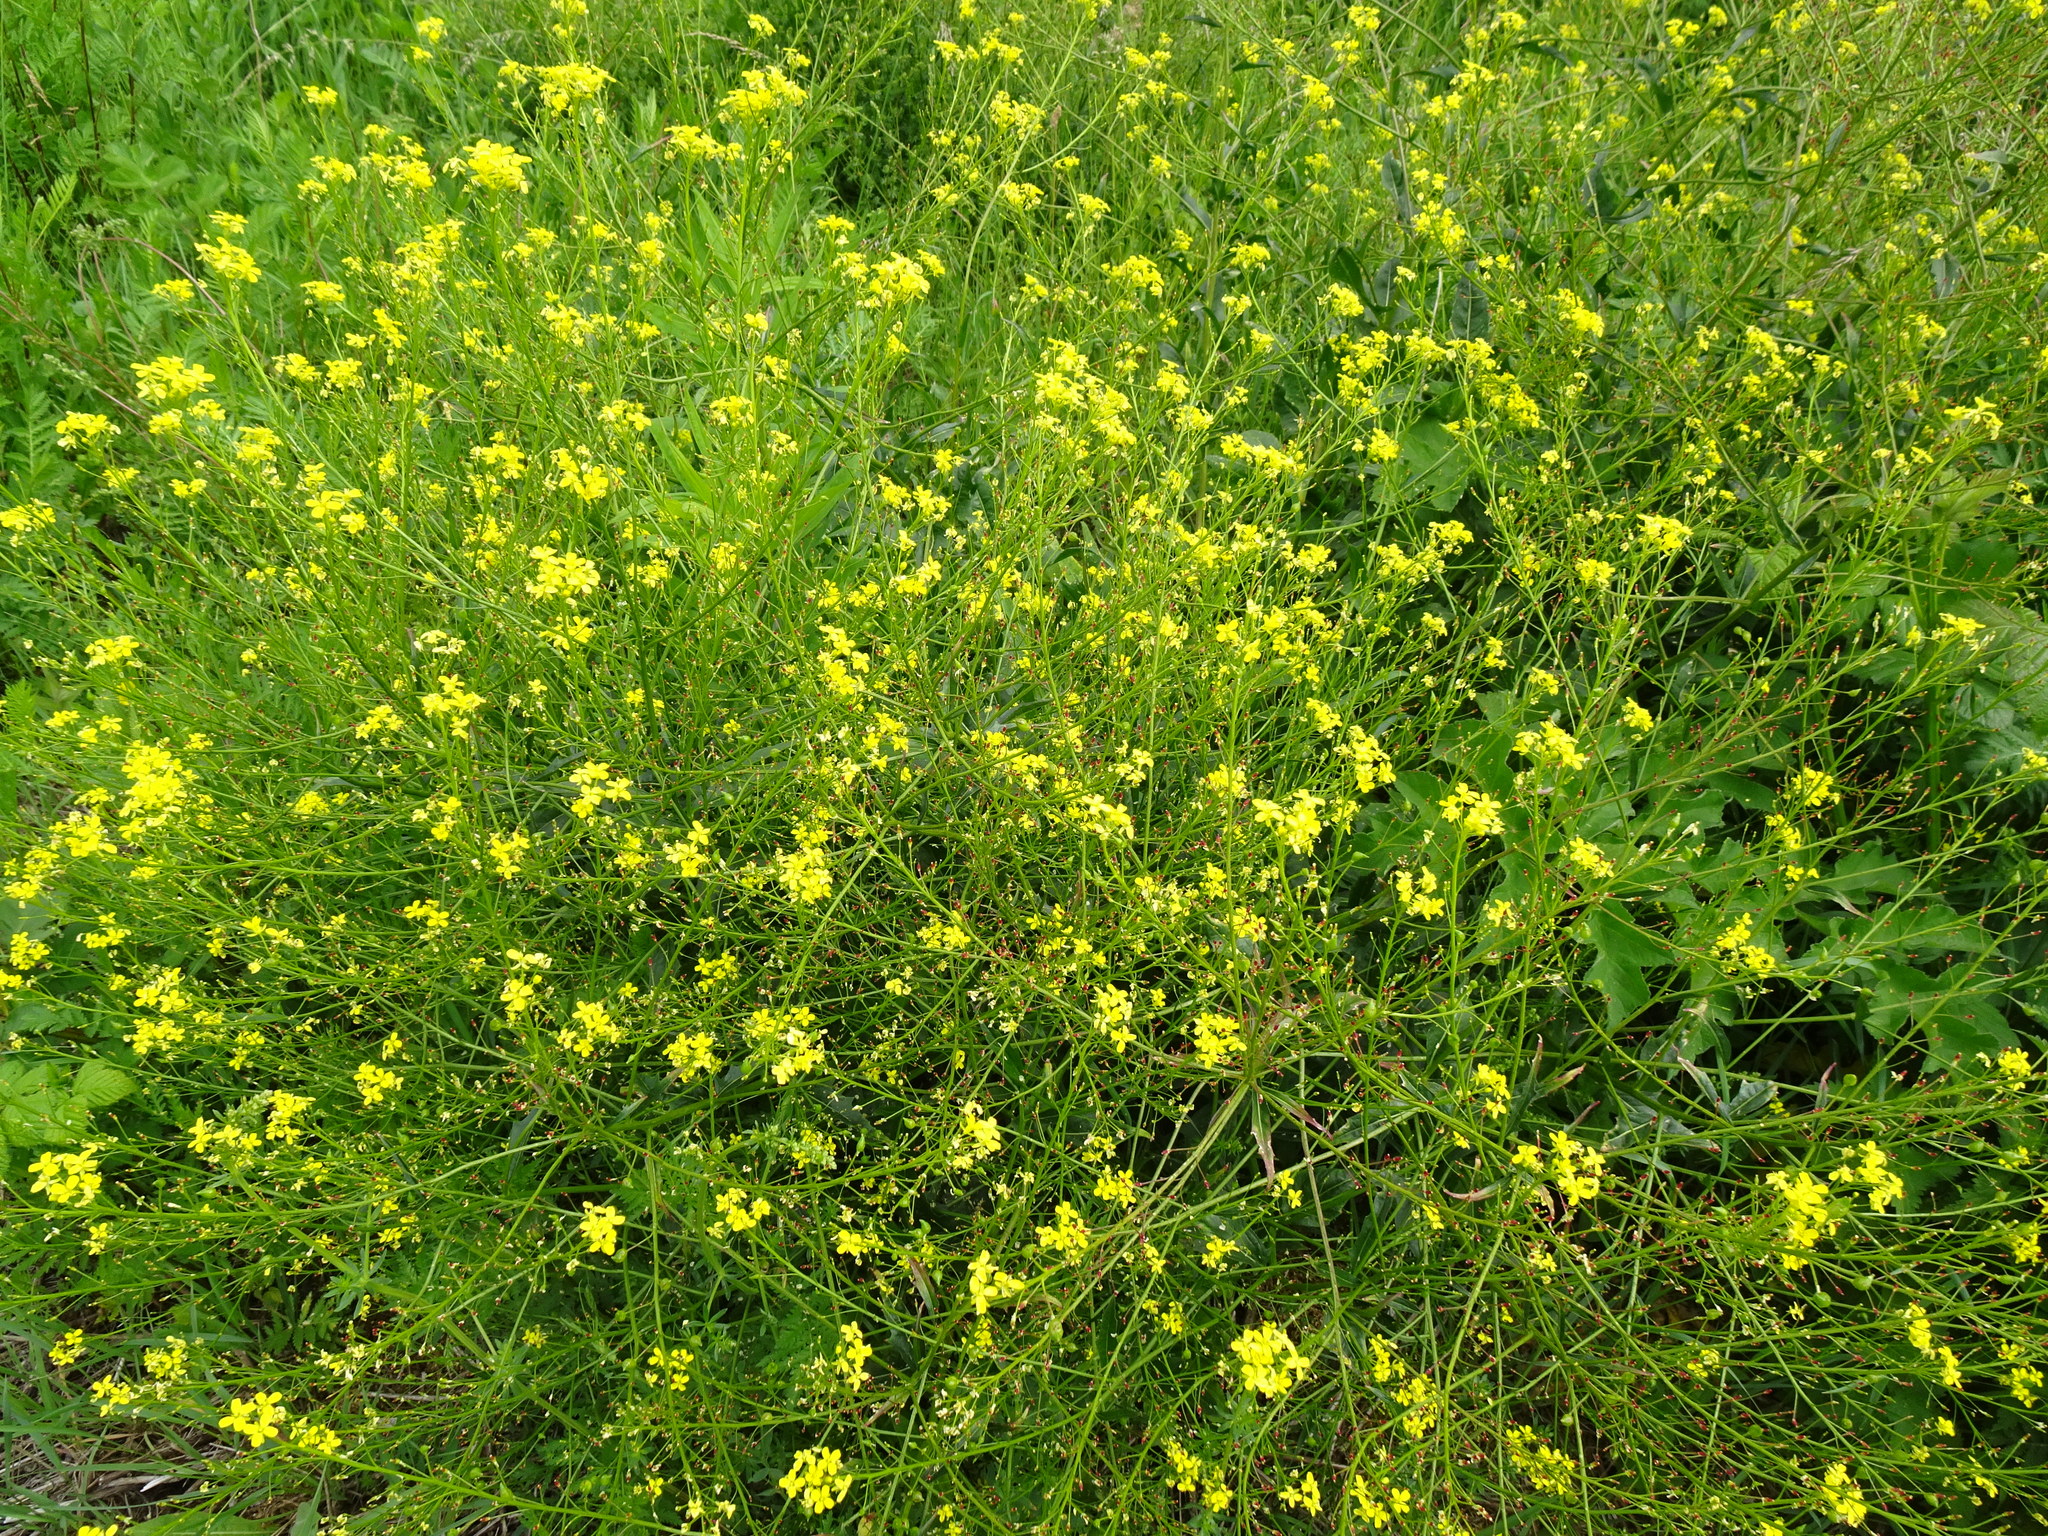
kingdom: Plantae
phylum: Tracheophyta
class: Magnoliopsida
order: Brassicales
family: Brassicaceae
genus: Bunias
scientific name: Bunias orientalis
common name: Warty-cabbage
